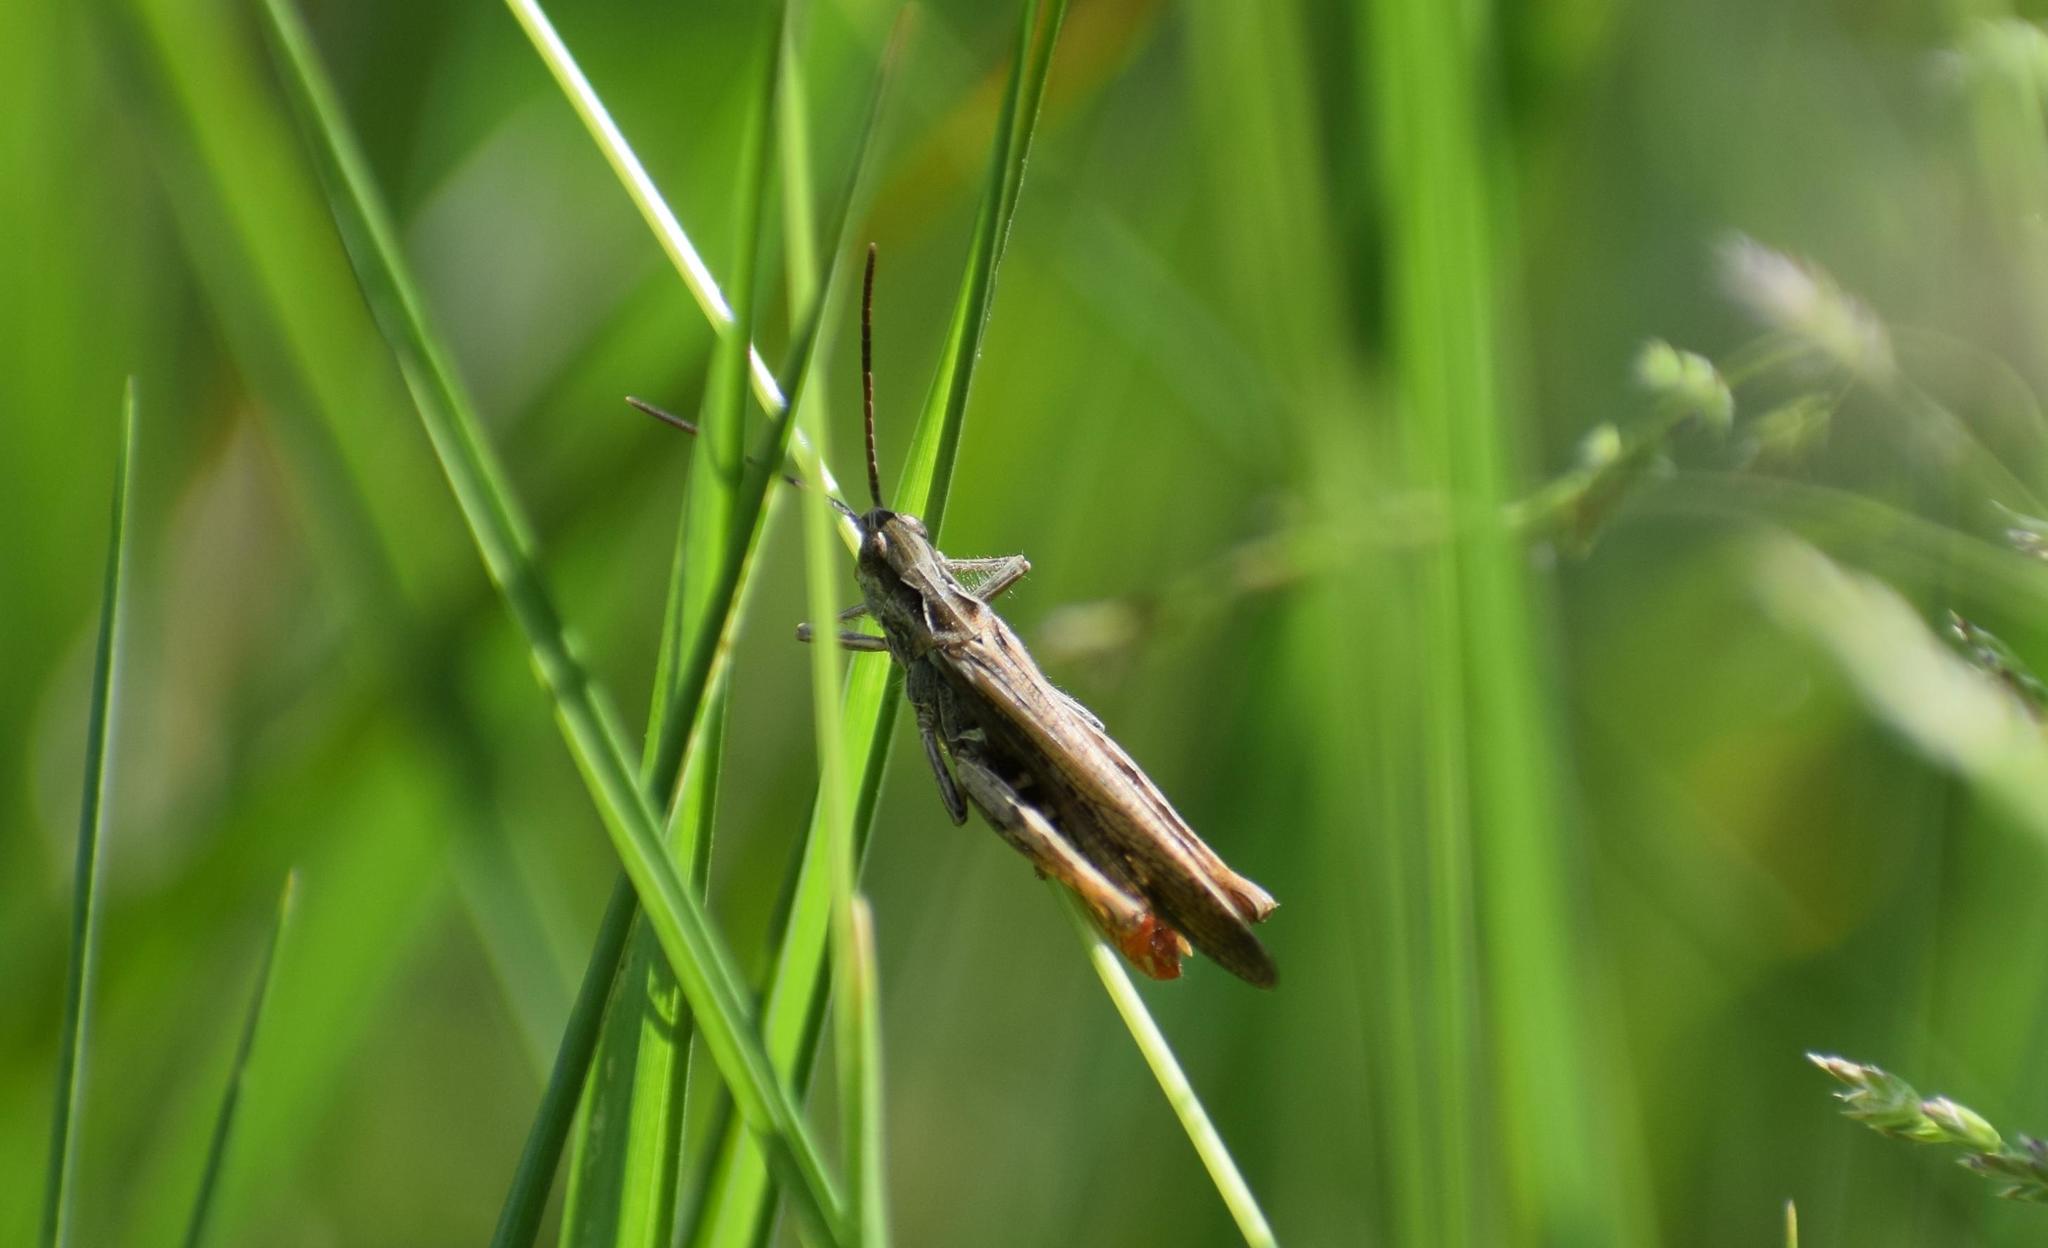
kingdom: Animalia
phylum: Arthropoda
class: Insecta
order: Orthoptera
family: Acrididae
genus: Chorthippus
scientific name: Chorthippus brunneus
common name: Field grasshopper
